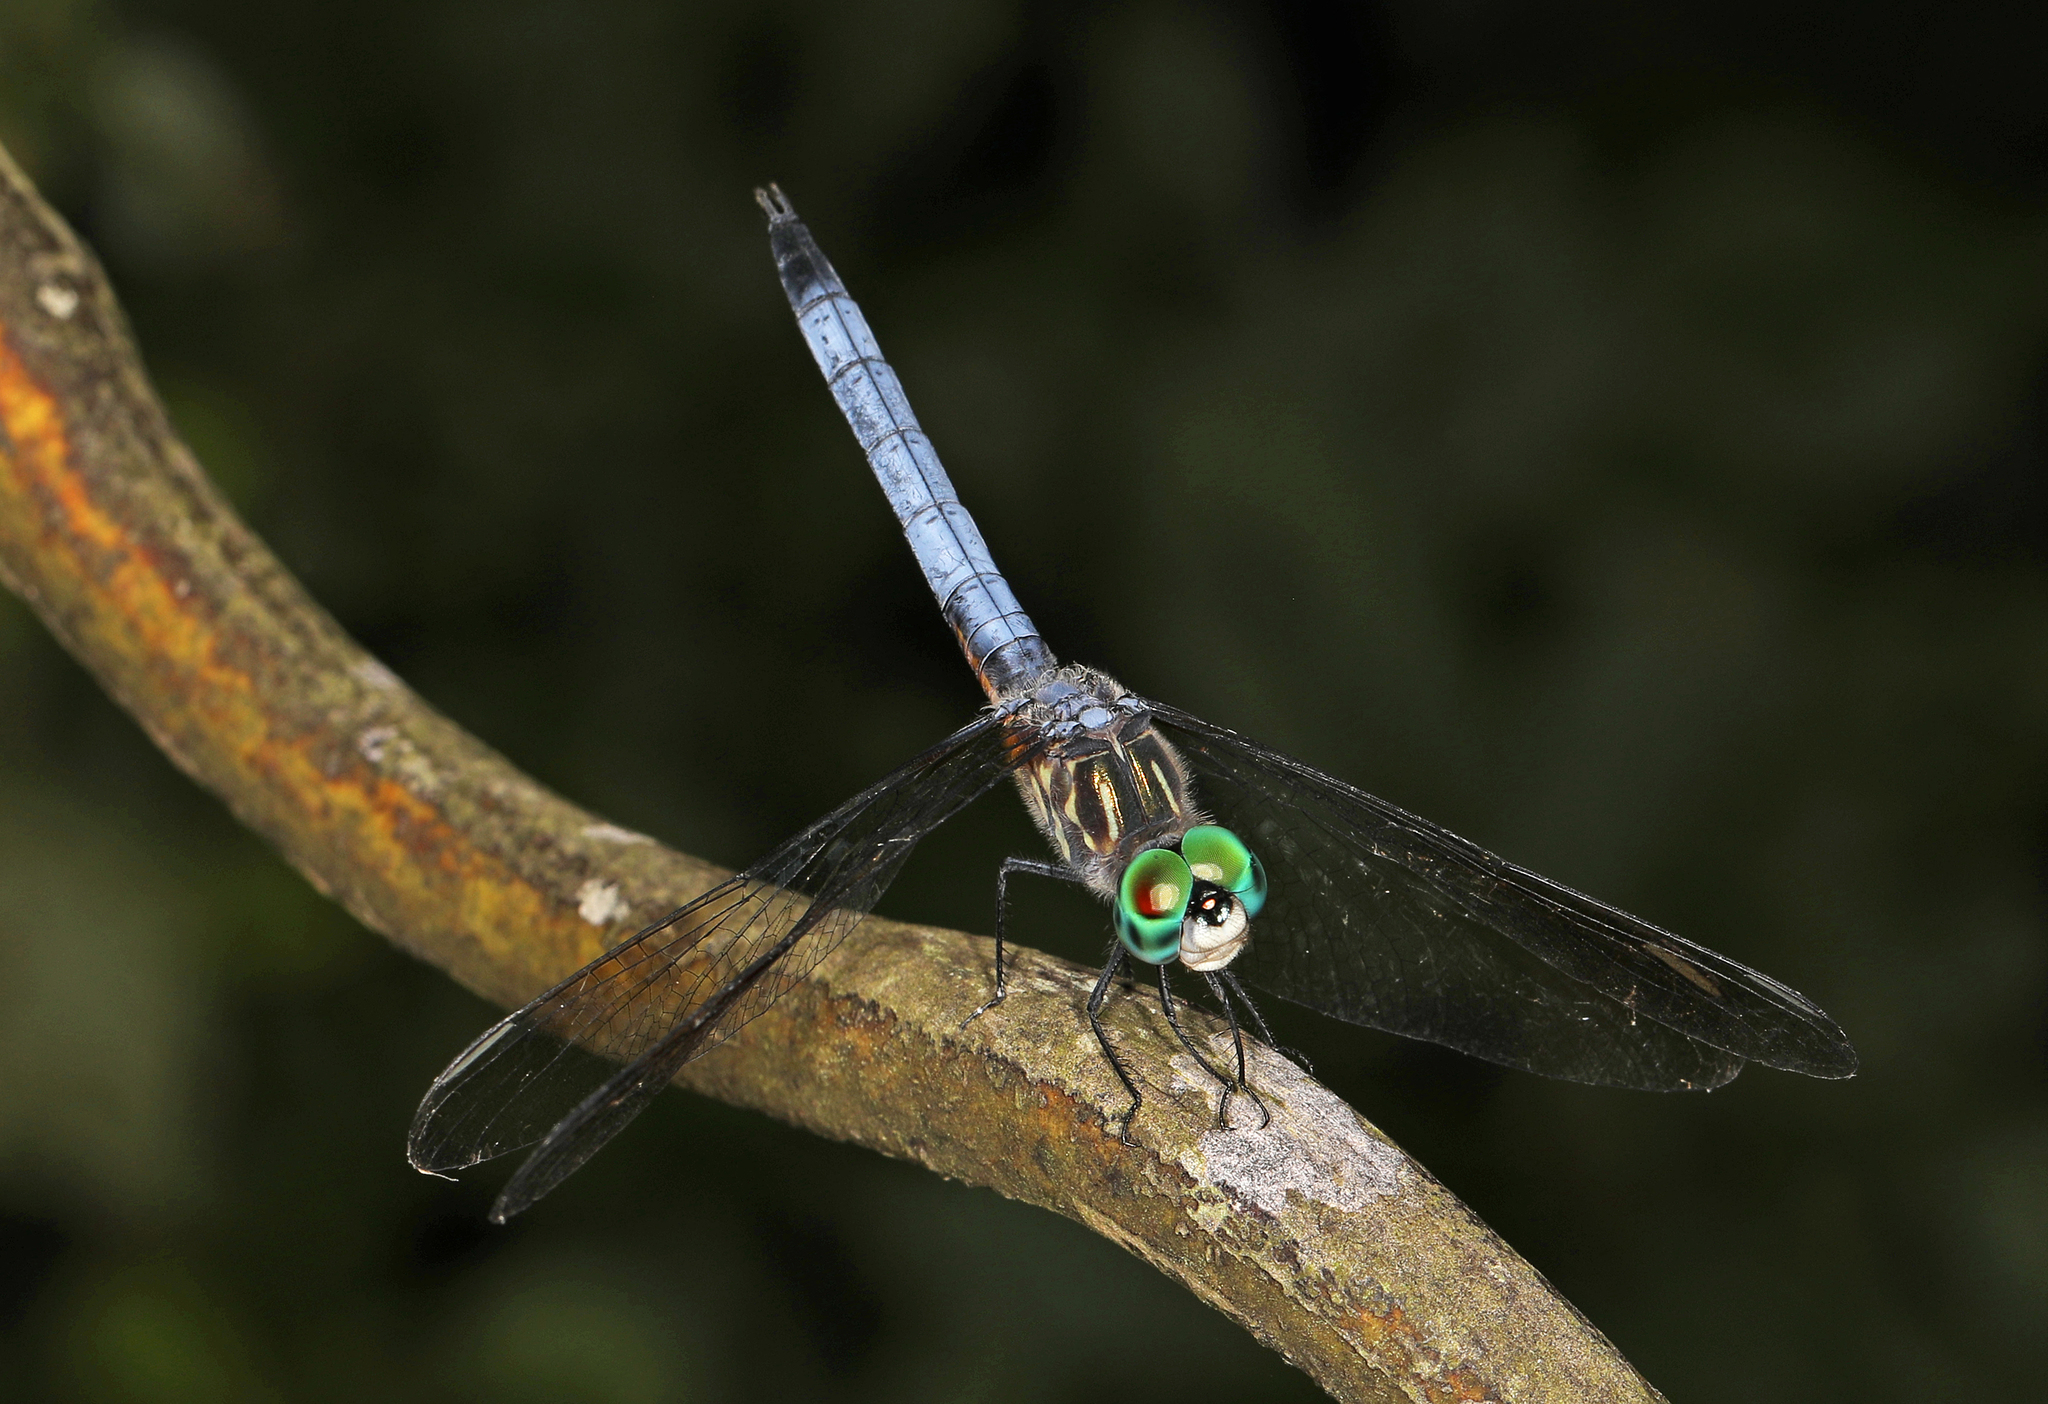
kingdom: Animalia
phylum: Arthropoda
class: Insecta
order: Odonata
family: Libellulidae
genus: Pachydiplax
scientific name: Pachydiplax longipennis
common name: Blue dasher
